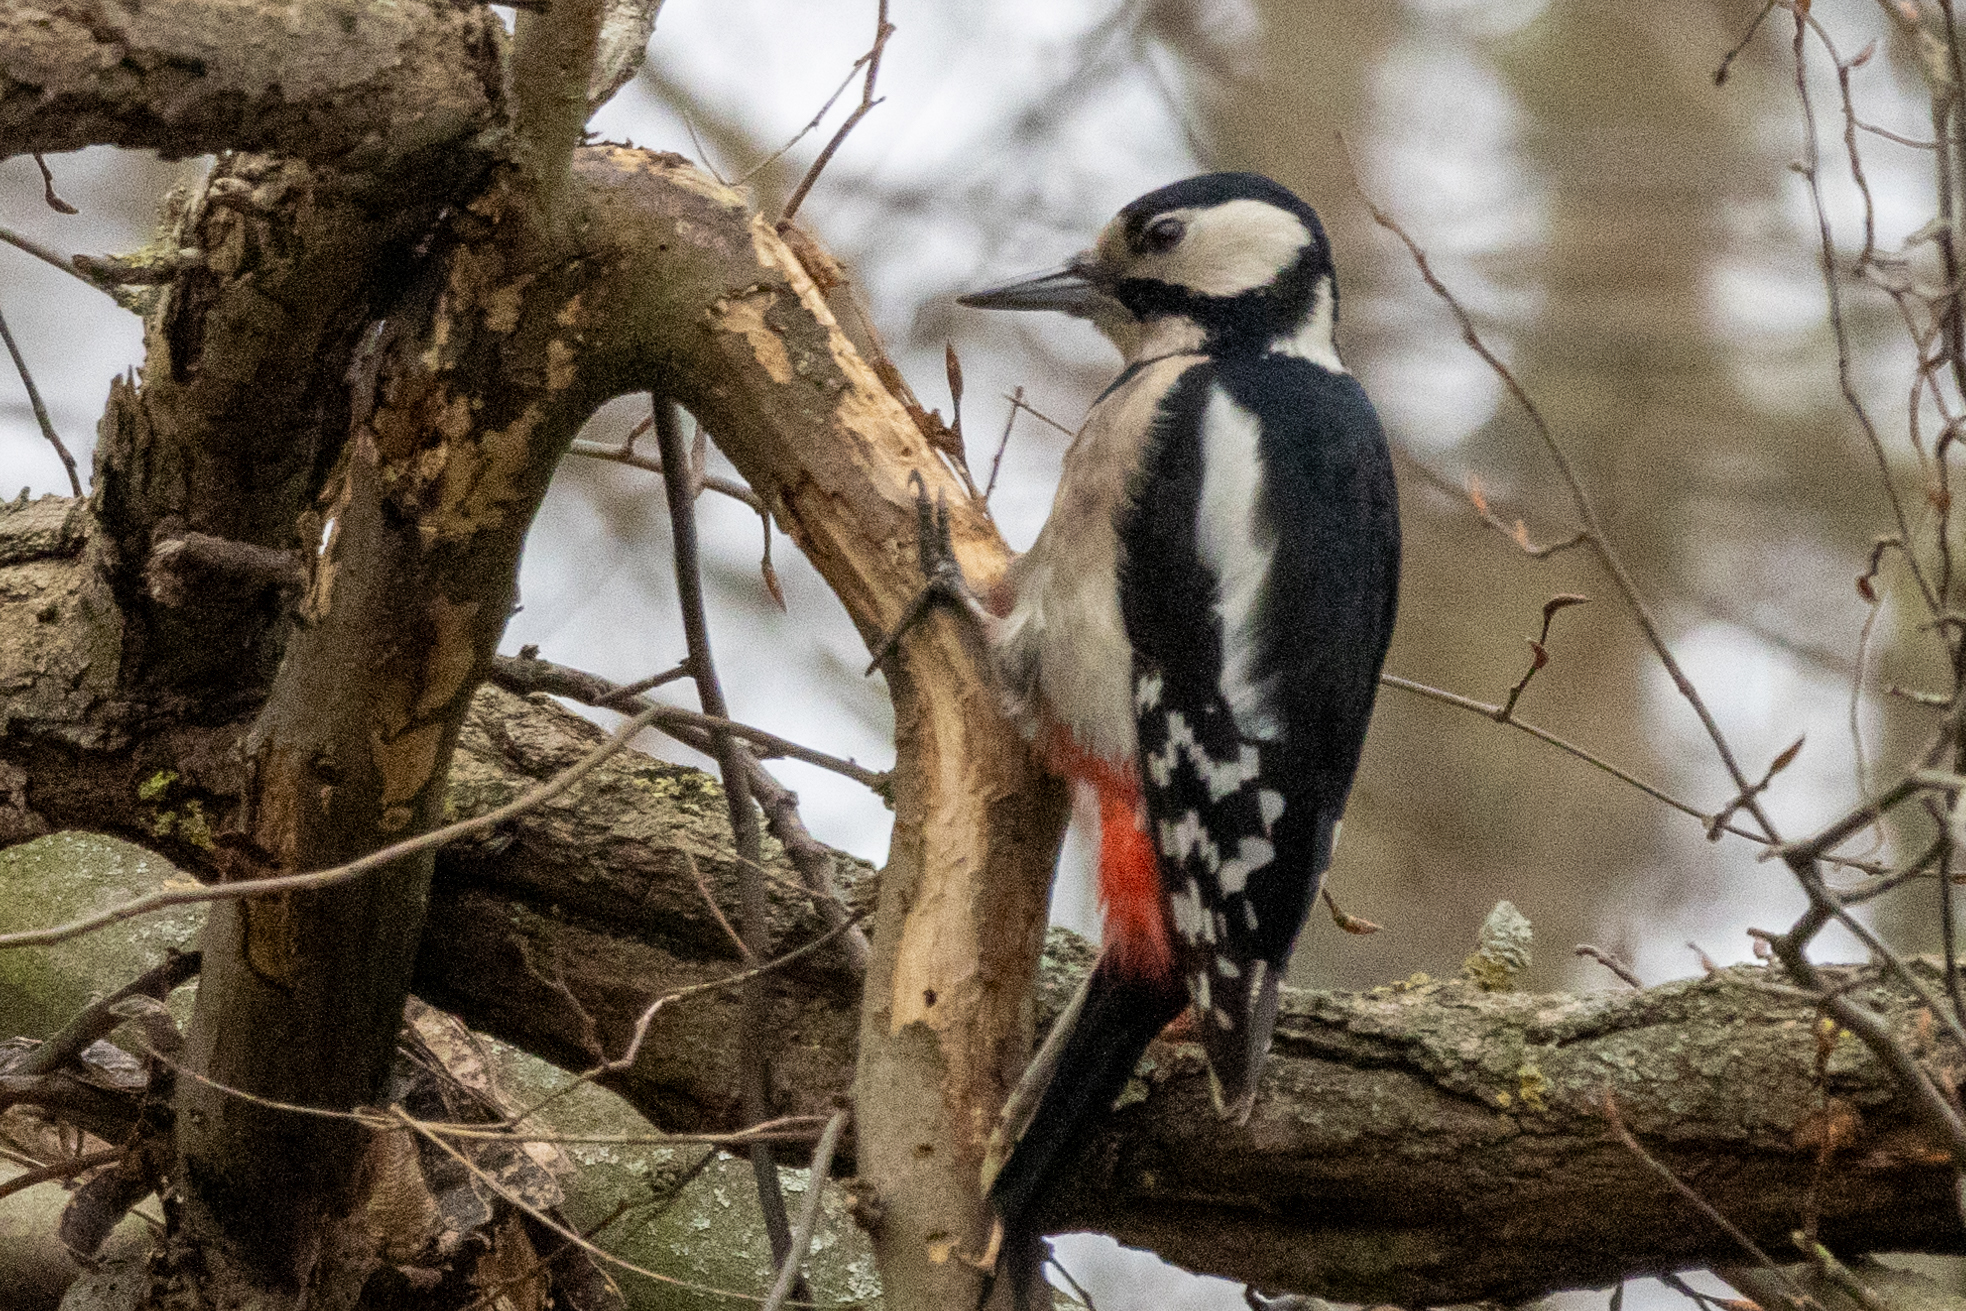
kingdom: Animalia
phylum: Chordata
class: Aves
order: Piciformes
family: Picidae
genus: Dendrocopos
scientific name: Dendrocopos major
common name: Great spotted woodpecker
